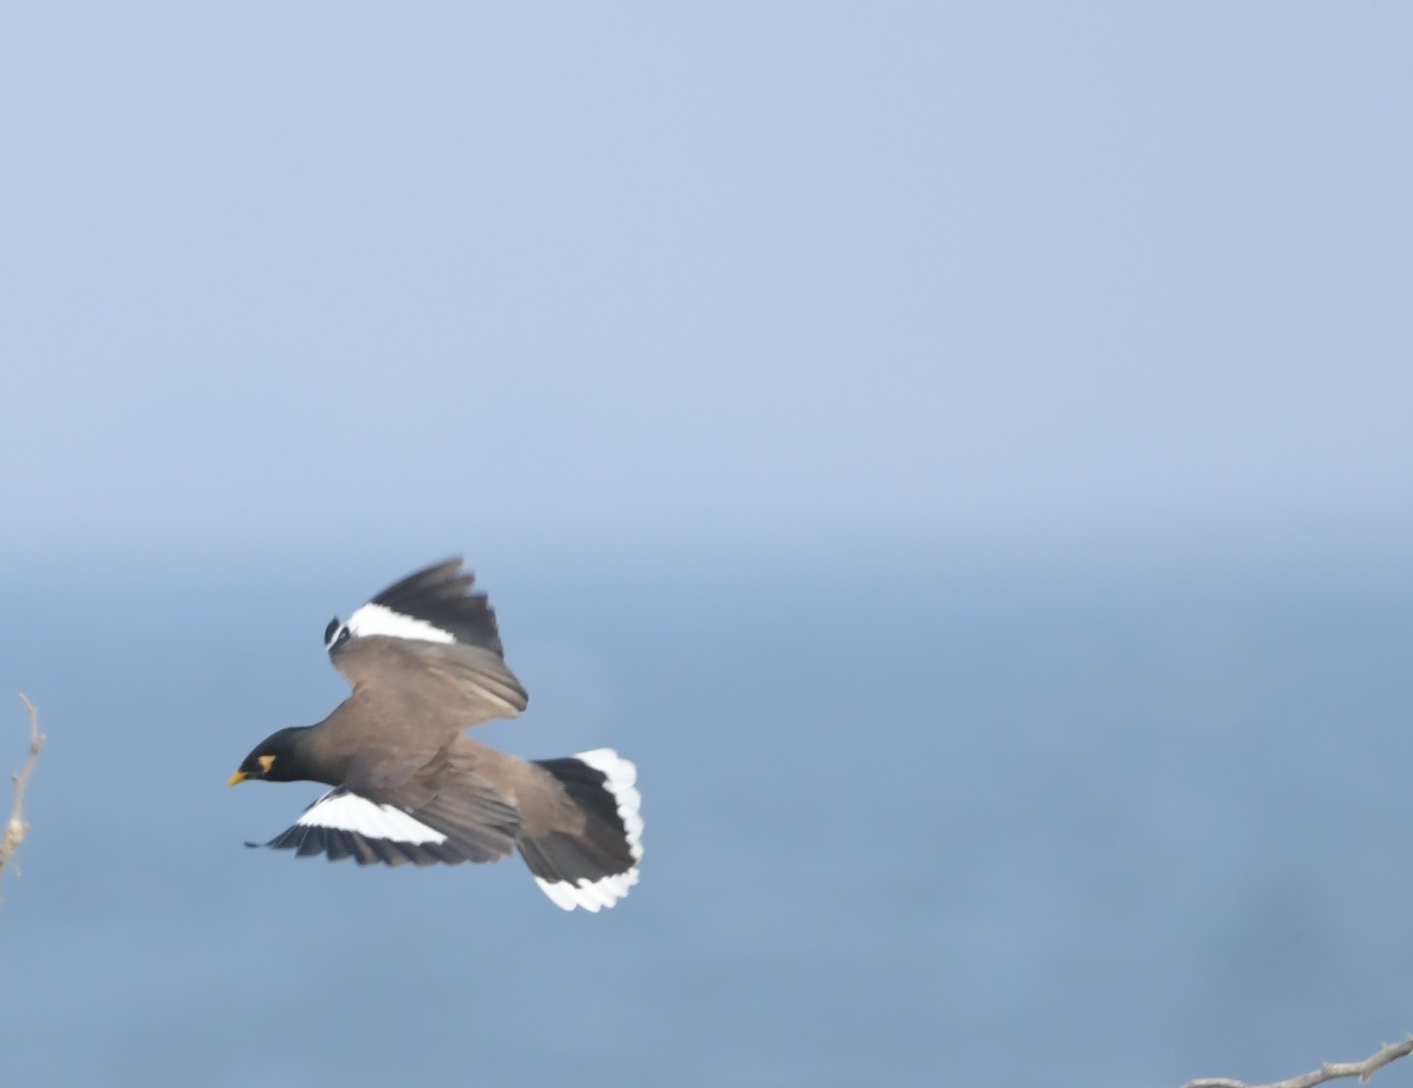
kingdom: Animalia
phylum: Chordata
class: Aves
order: Passeriformes
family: Sturnidae
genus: Acridotheres
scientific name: Acridotheres tristis
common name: Common myna
